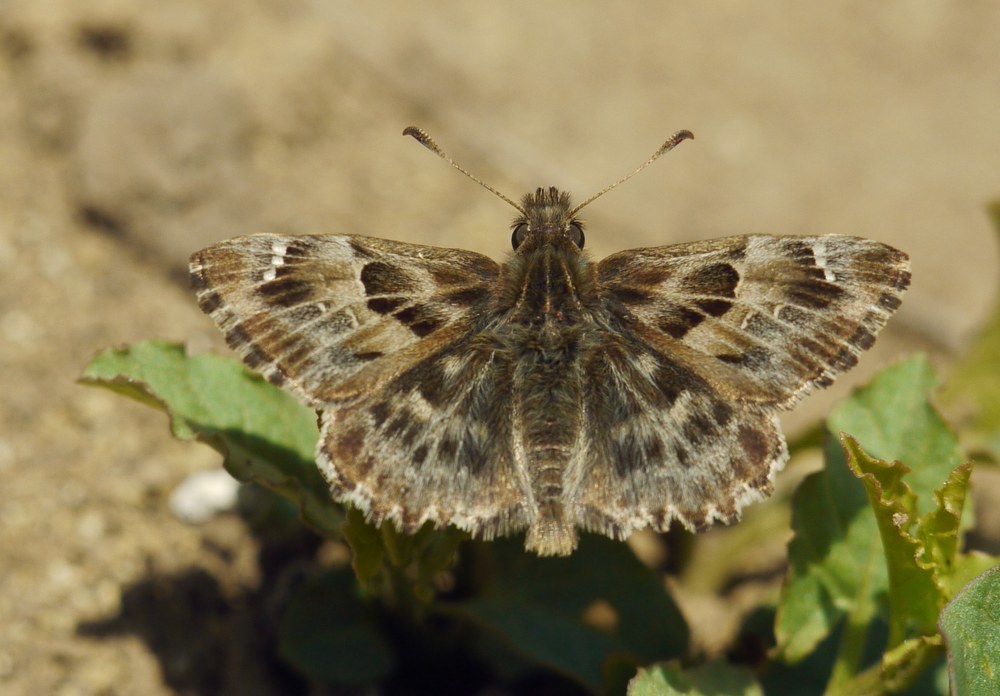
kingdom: Animalia
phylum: Arthropoda
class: Insecta
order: Lepidoptera
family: Hesperiidae
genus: Carcharodus
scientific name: Carcharodus alceae
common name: Mallow skipper
